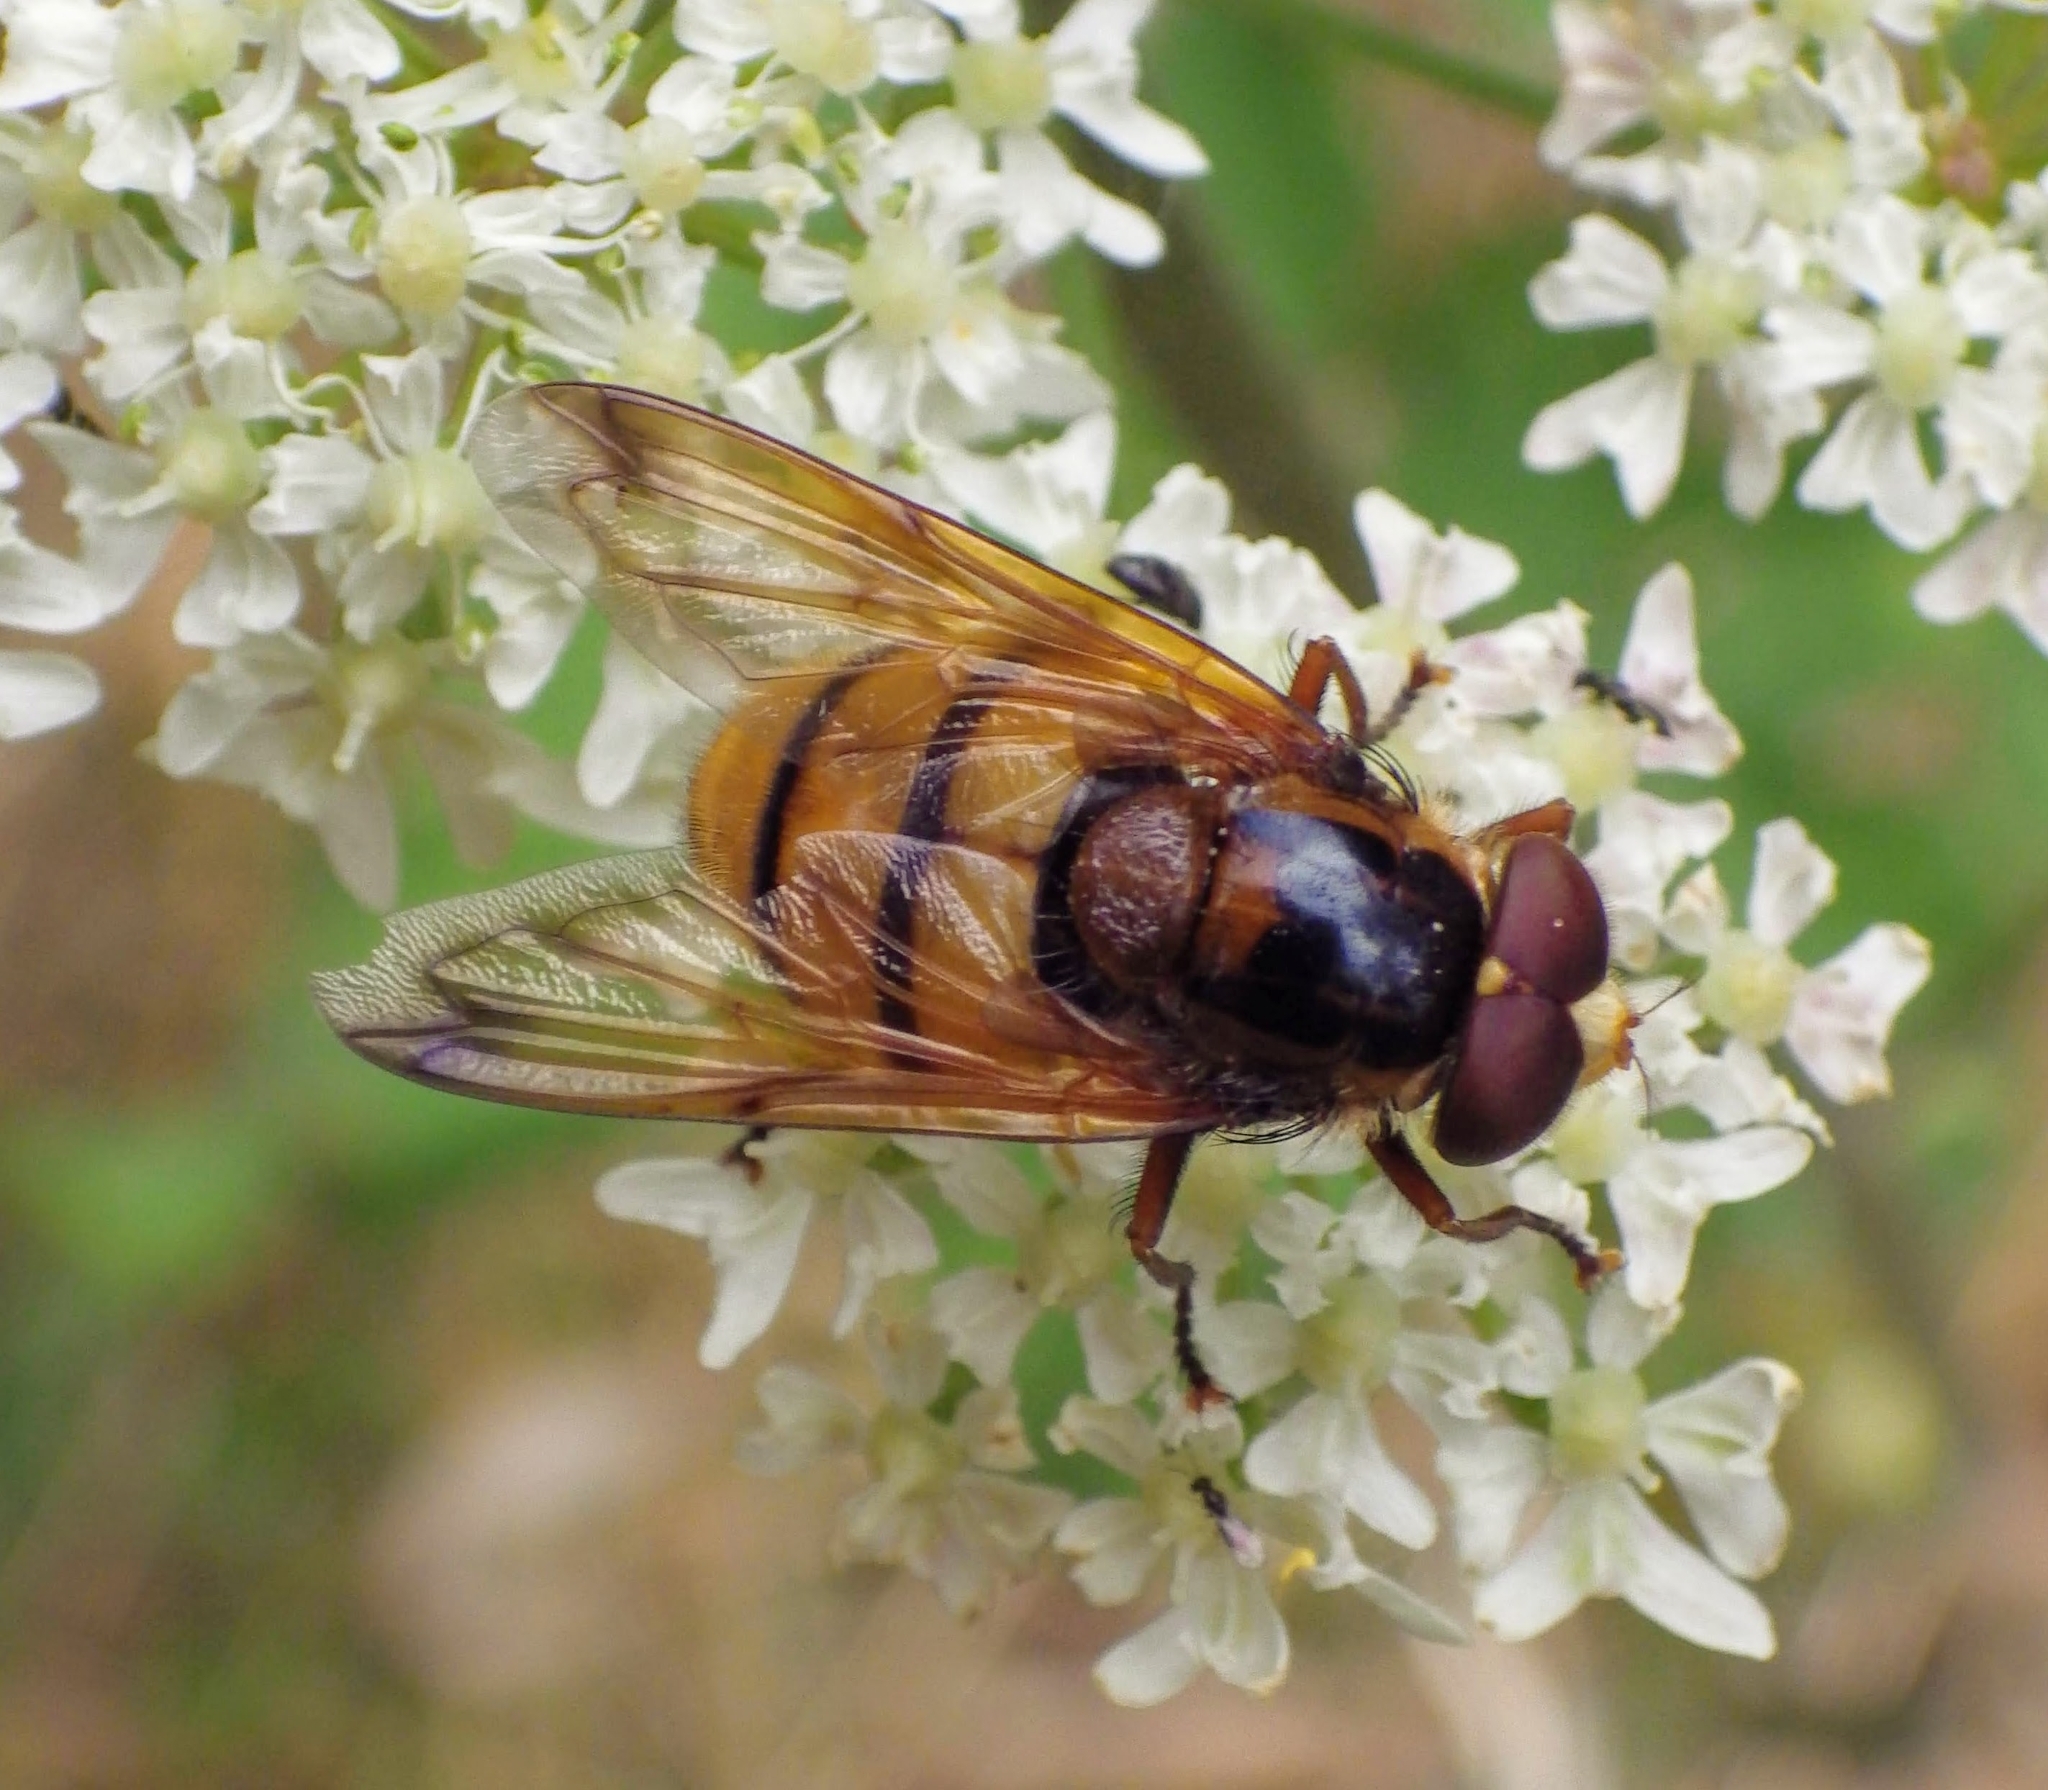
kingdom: Animalia
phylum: Arthropoda
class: Insecta
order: Diptera
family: Syrphidae
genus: Volucella
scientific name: Volucella inanis
